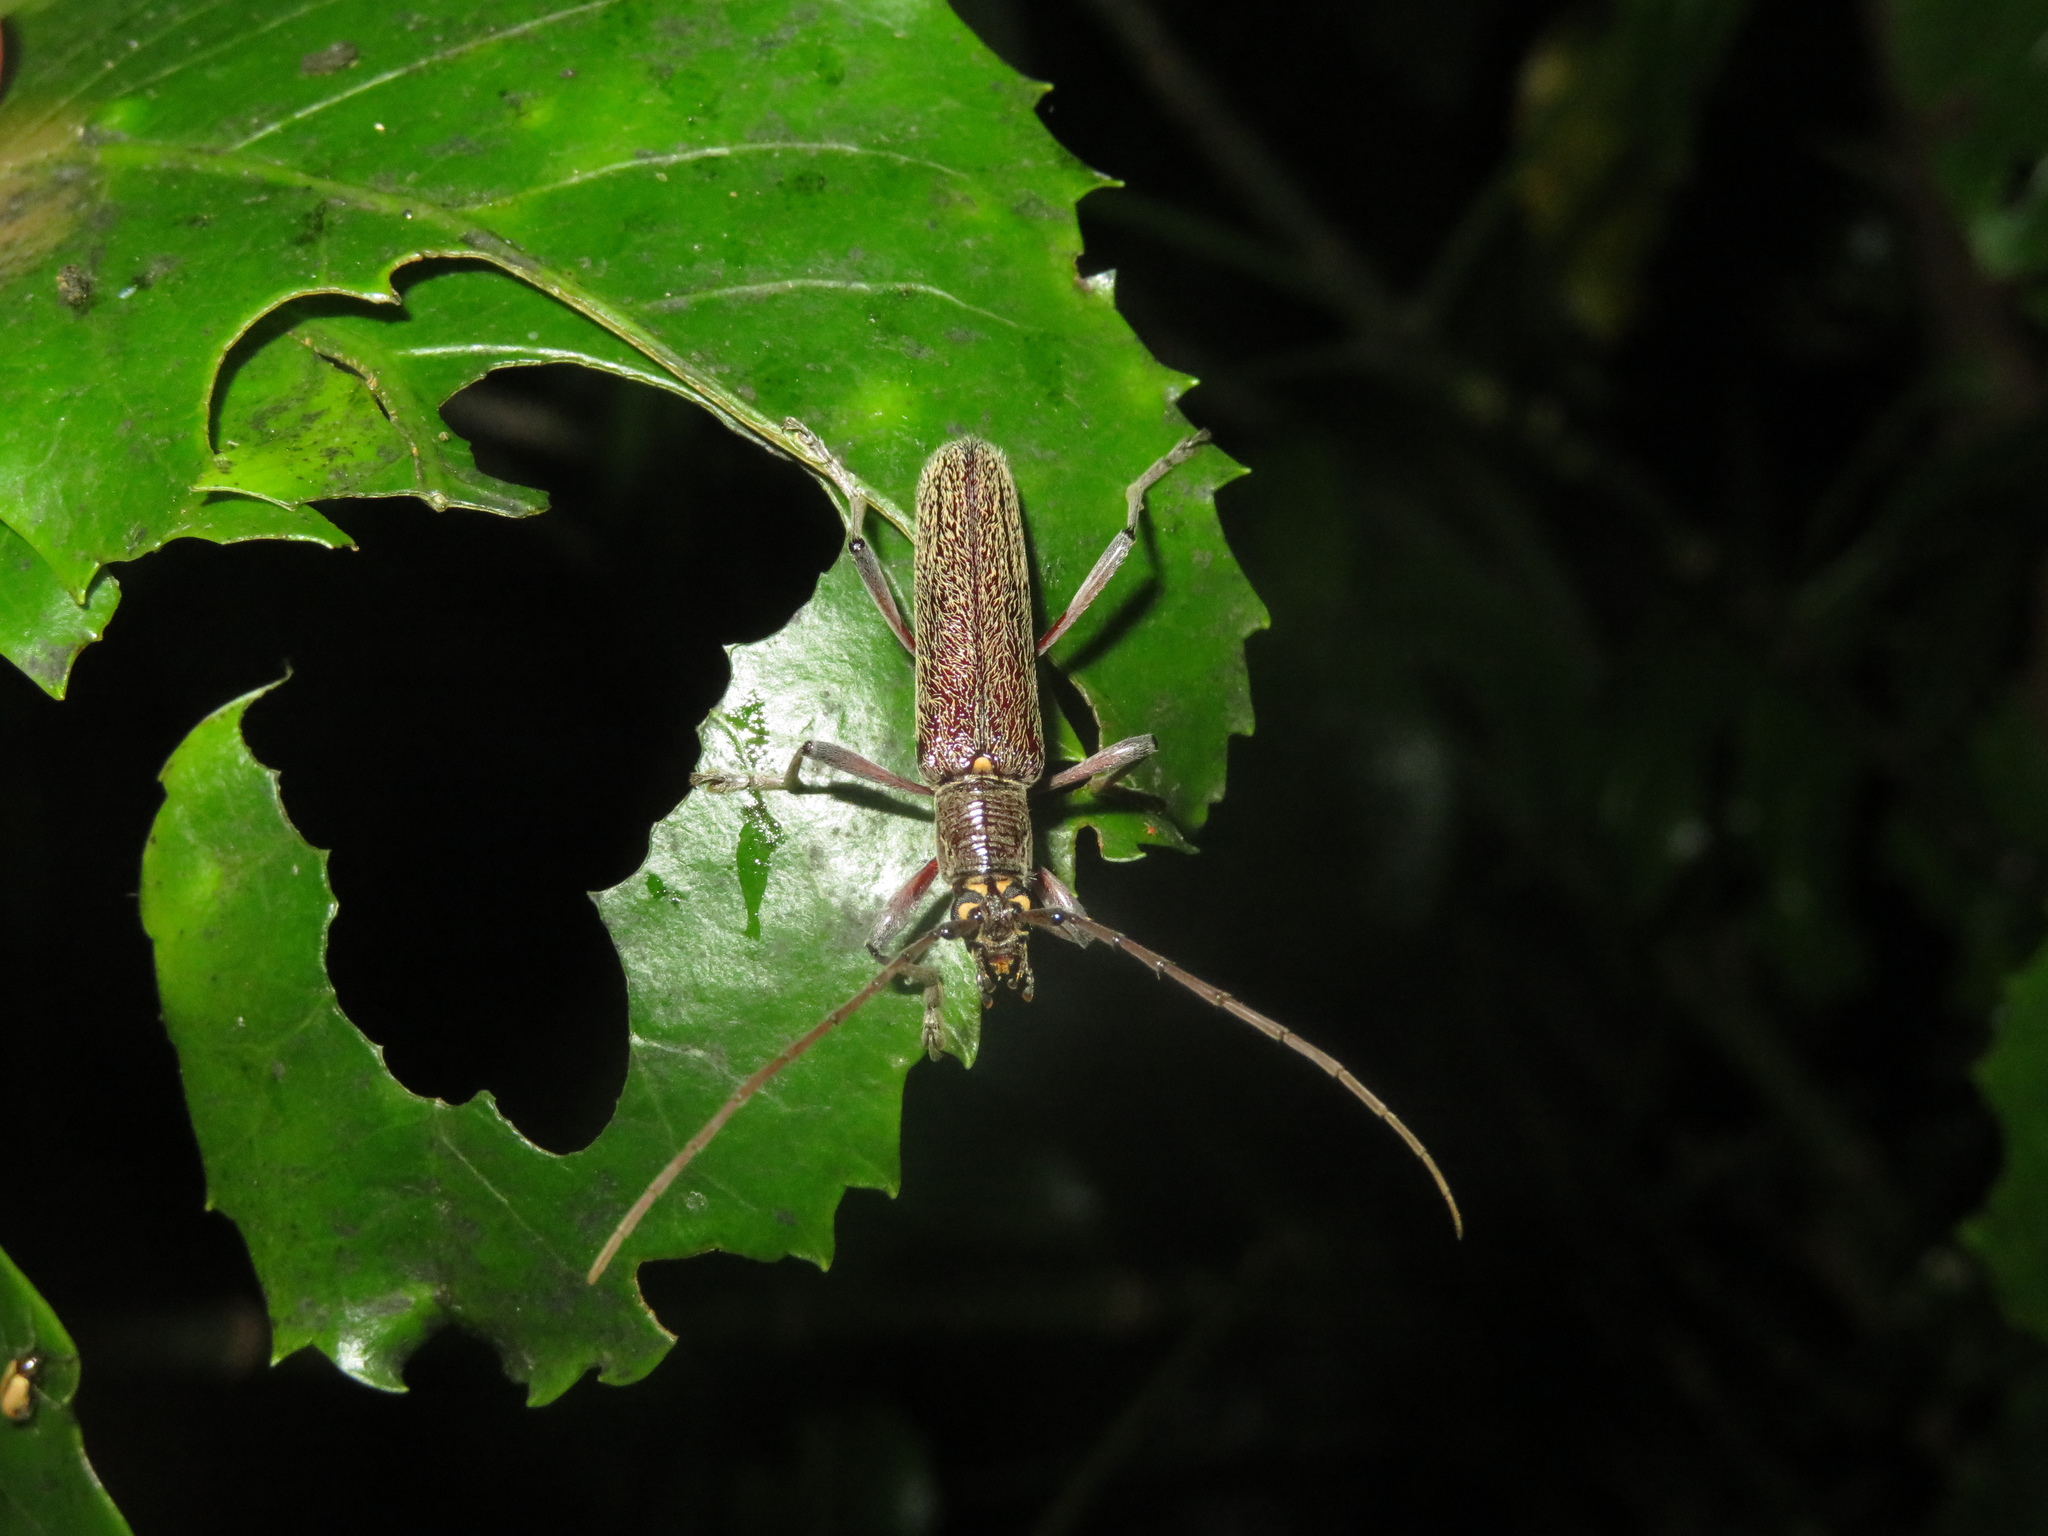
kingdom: Animalia
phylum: Arthropoda
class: Insecta
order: Coleoptera
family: Cerambycidae
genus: Oemona
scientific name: Oemona hirta
